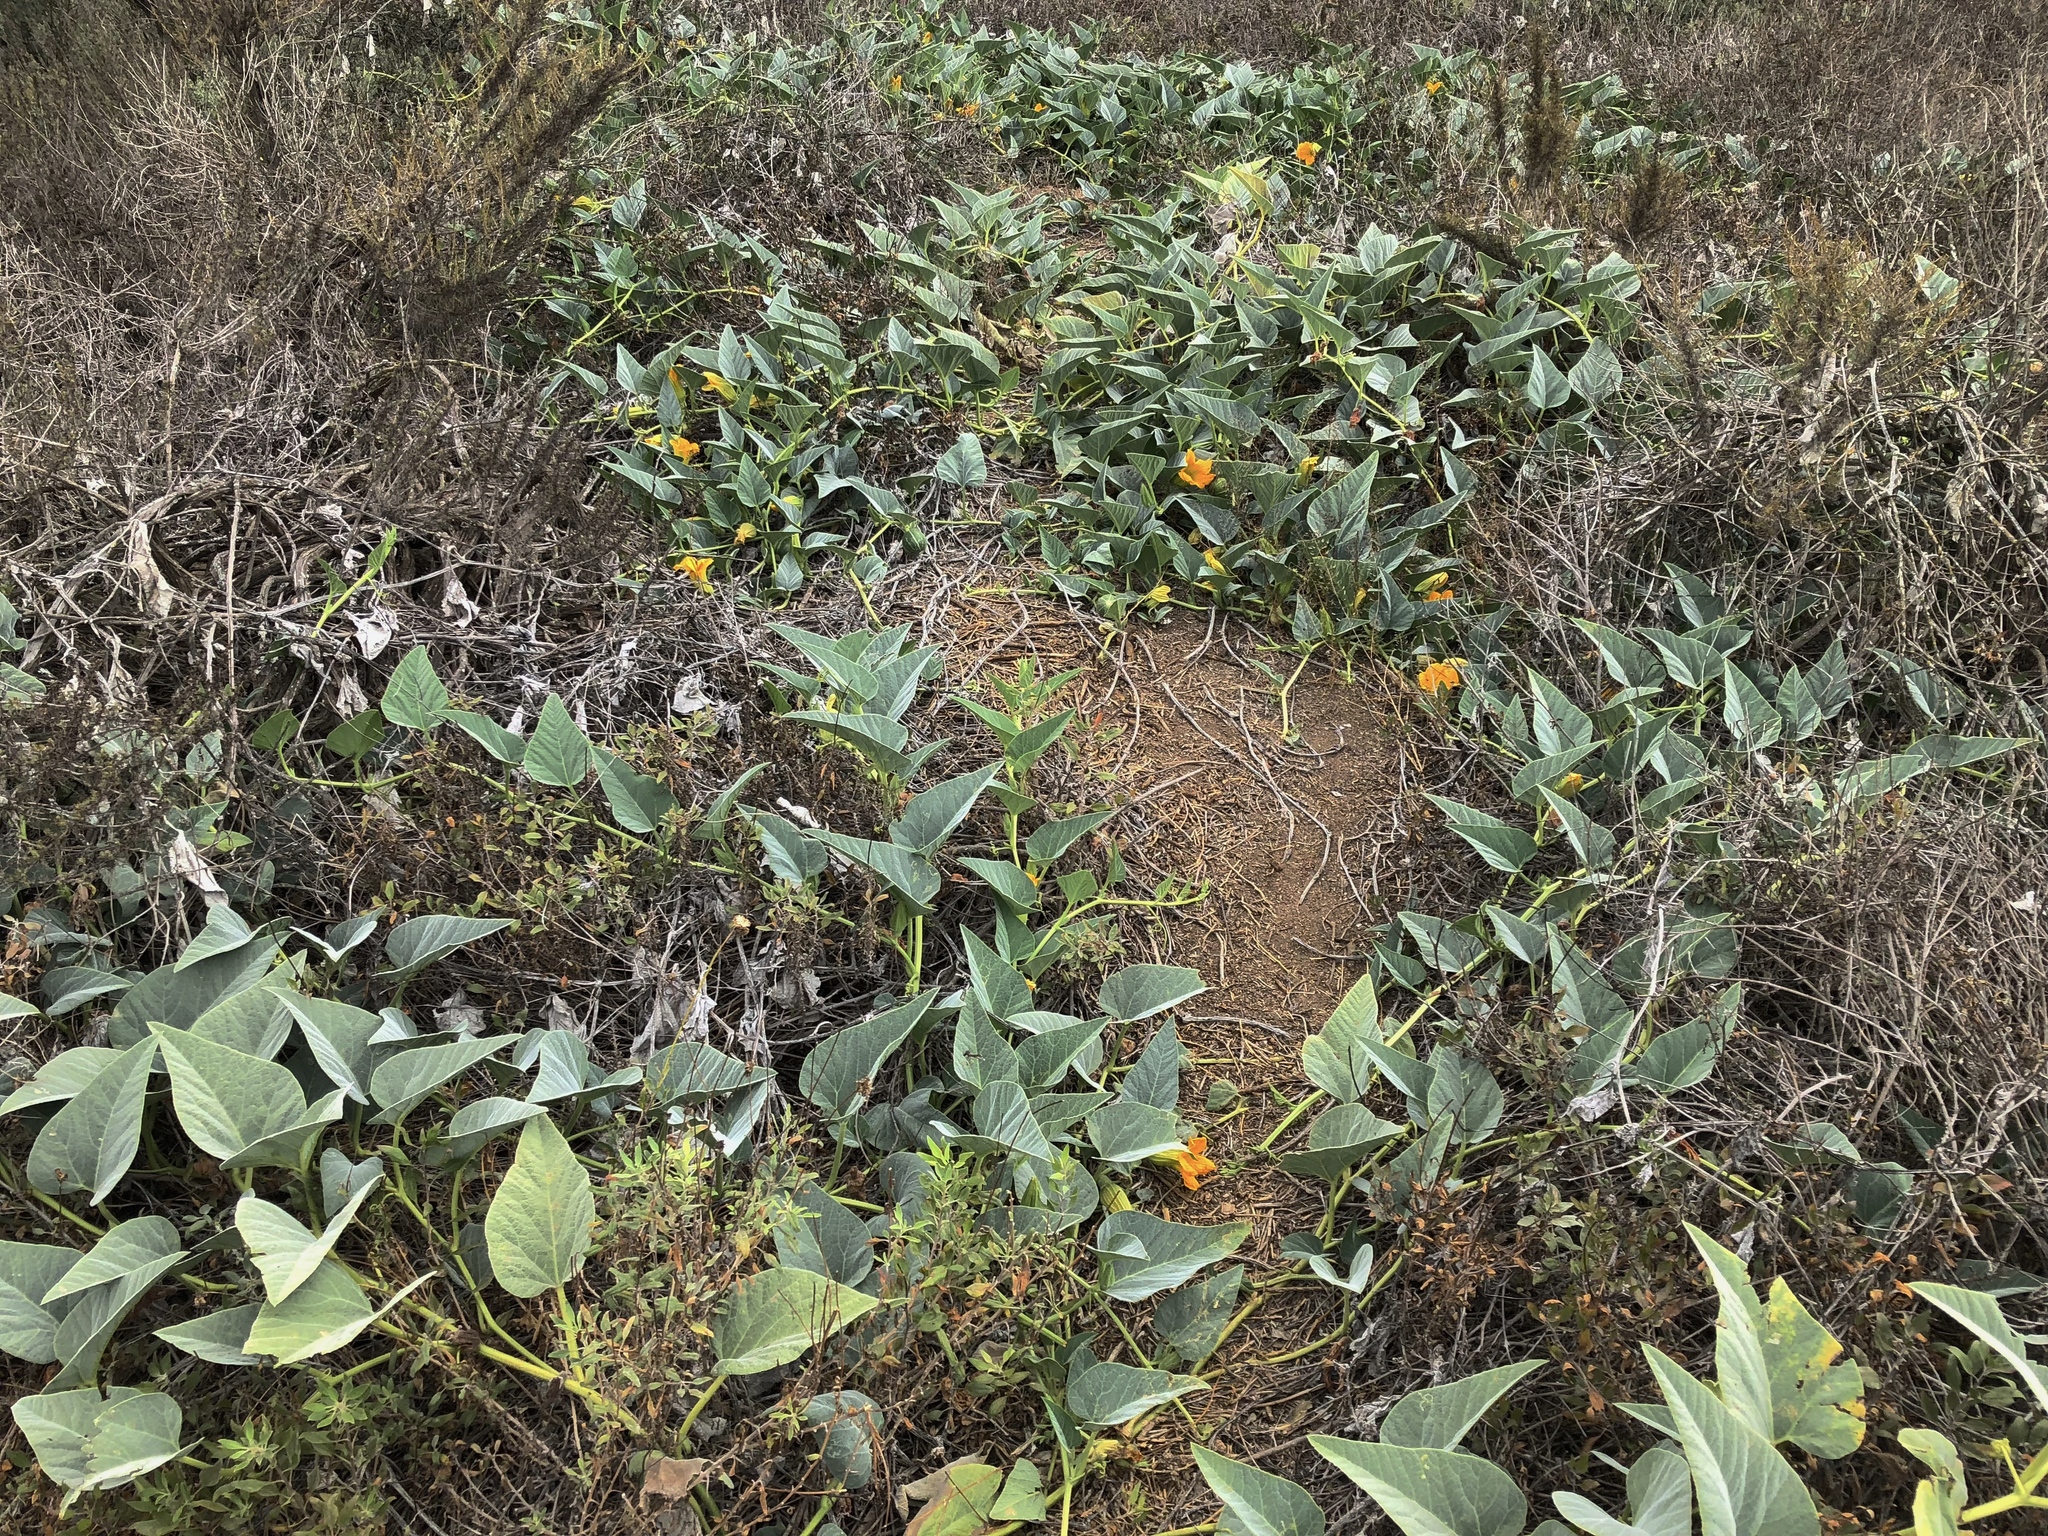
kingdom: Plantae
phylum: Tracheophyta
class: Magnoliopsida
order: Cucurbitales
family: Cucurbitaceae
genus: Cucurbita
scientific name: Cucurbita foetidissima
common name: Buffalo gourd
